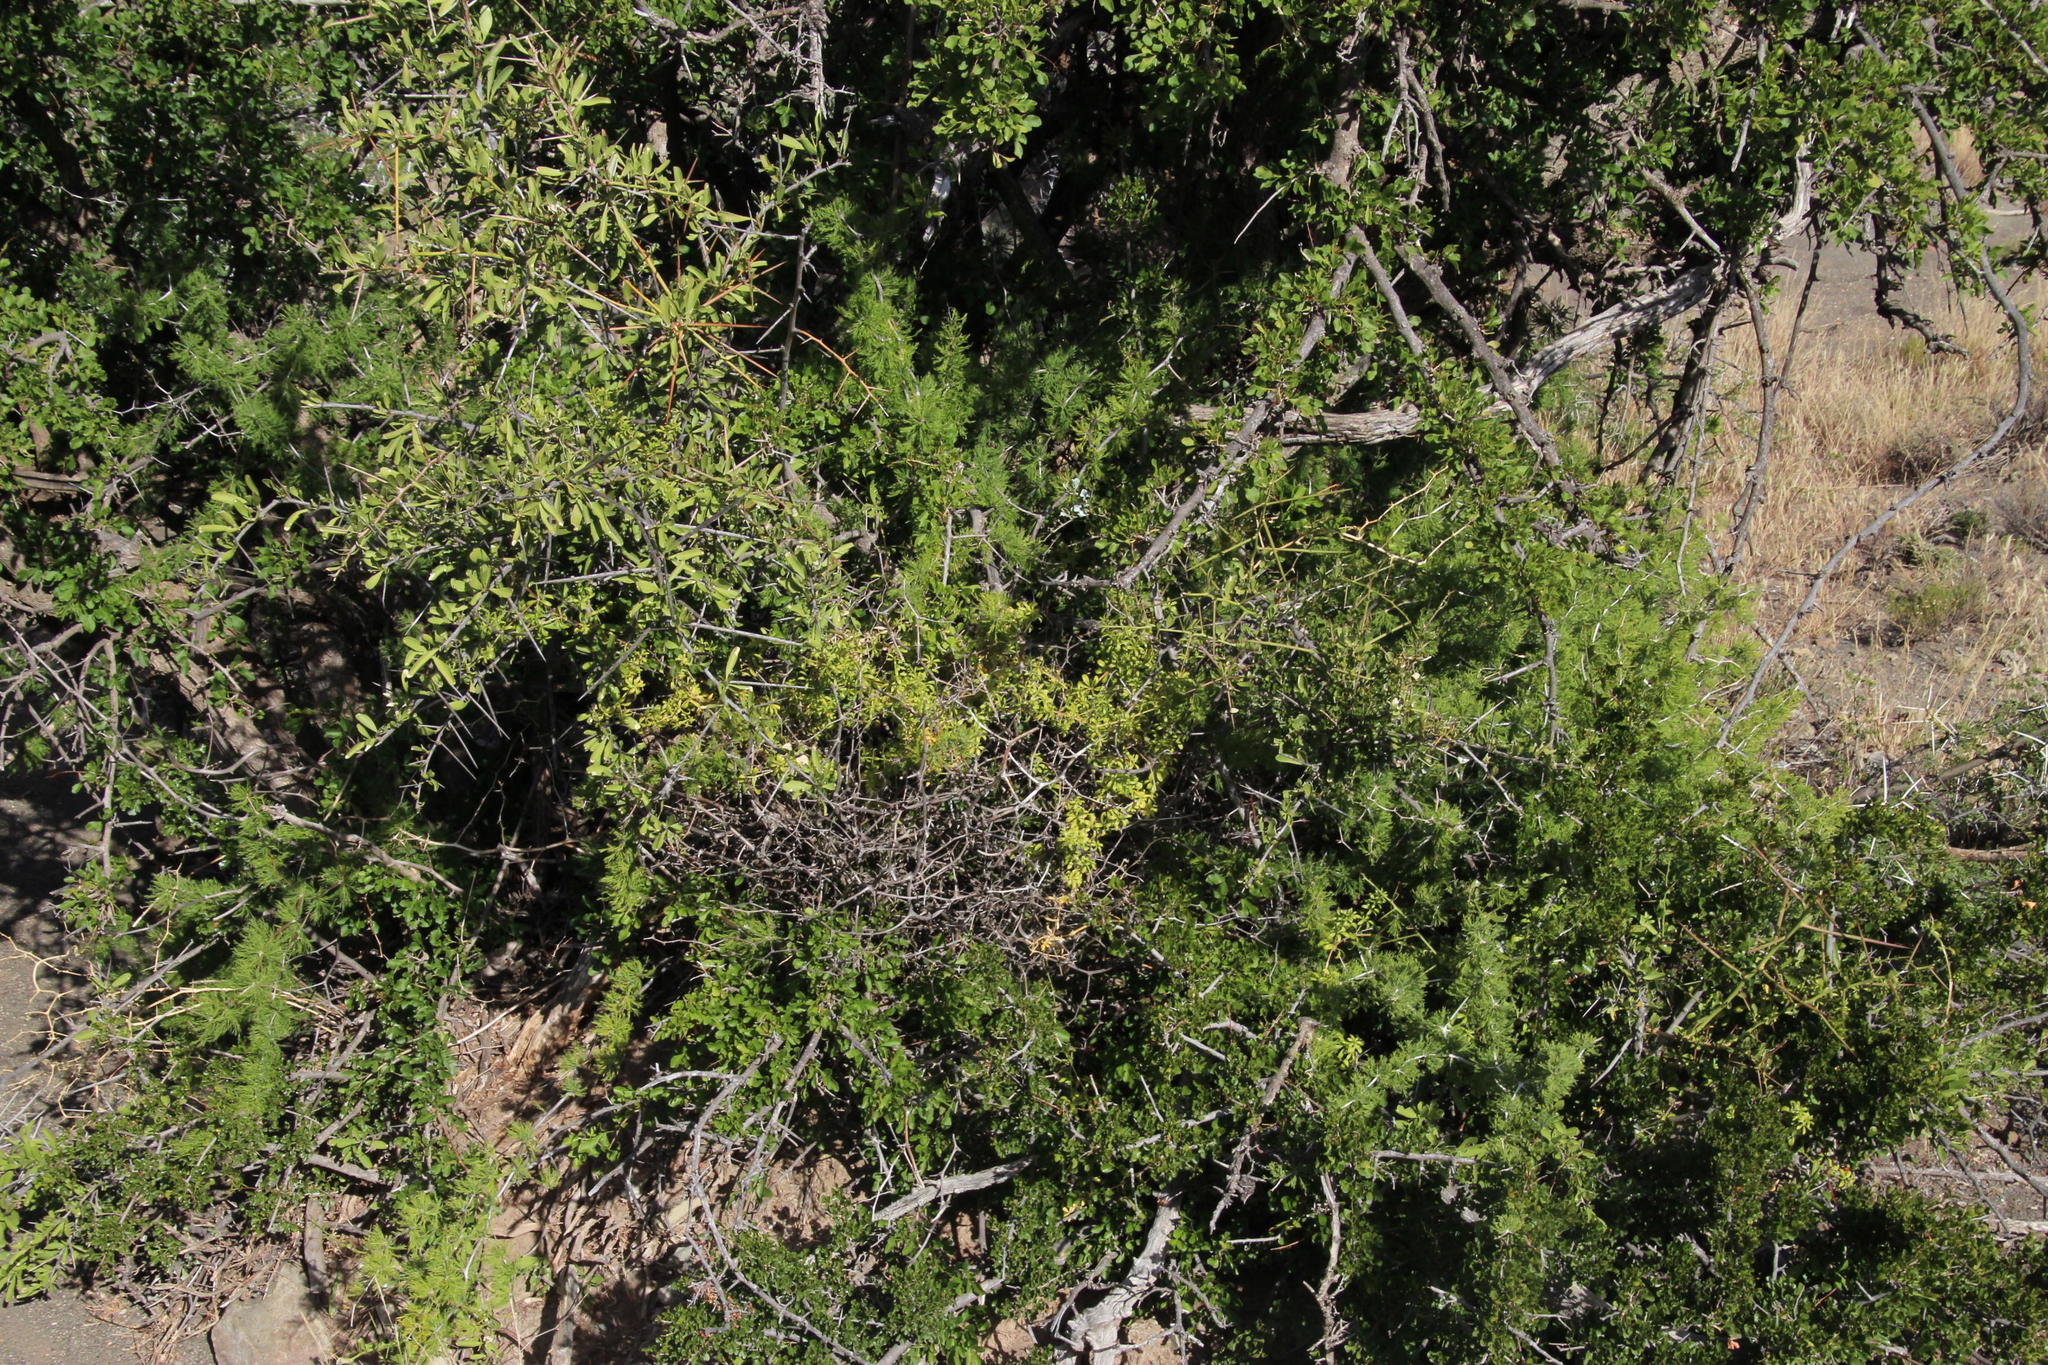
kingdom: Plantae
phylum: Tracheophyta
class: Liliopsida
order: Asparagales
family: Asparagaceae
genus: Asparagus
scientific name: Asparagus burchellii
